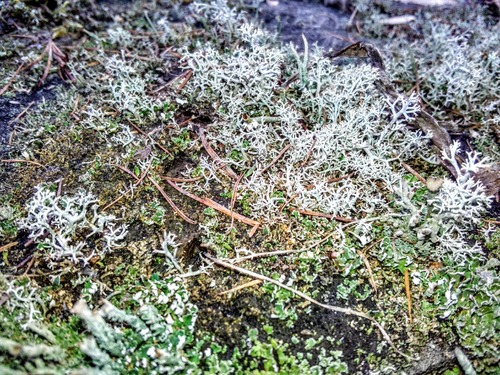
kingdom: Fungi
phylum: Ascomycota
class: Lecanoromycetes
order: Lecanorales
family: Cladoniaceae
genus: Cladonia
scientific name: Cladonia furcata
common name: Many-forked cladonia
